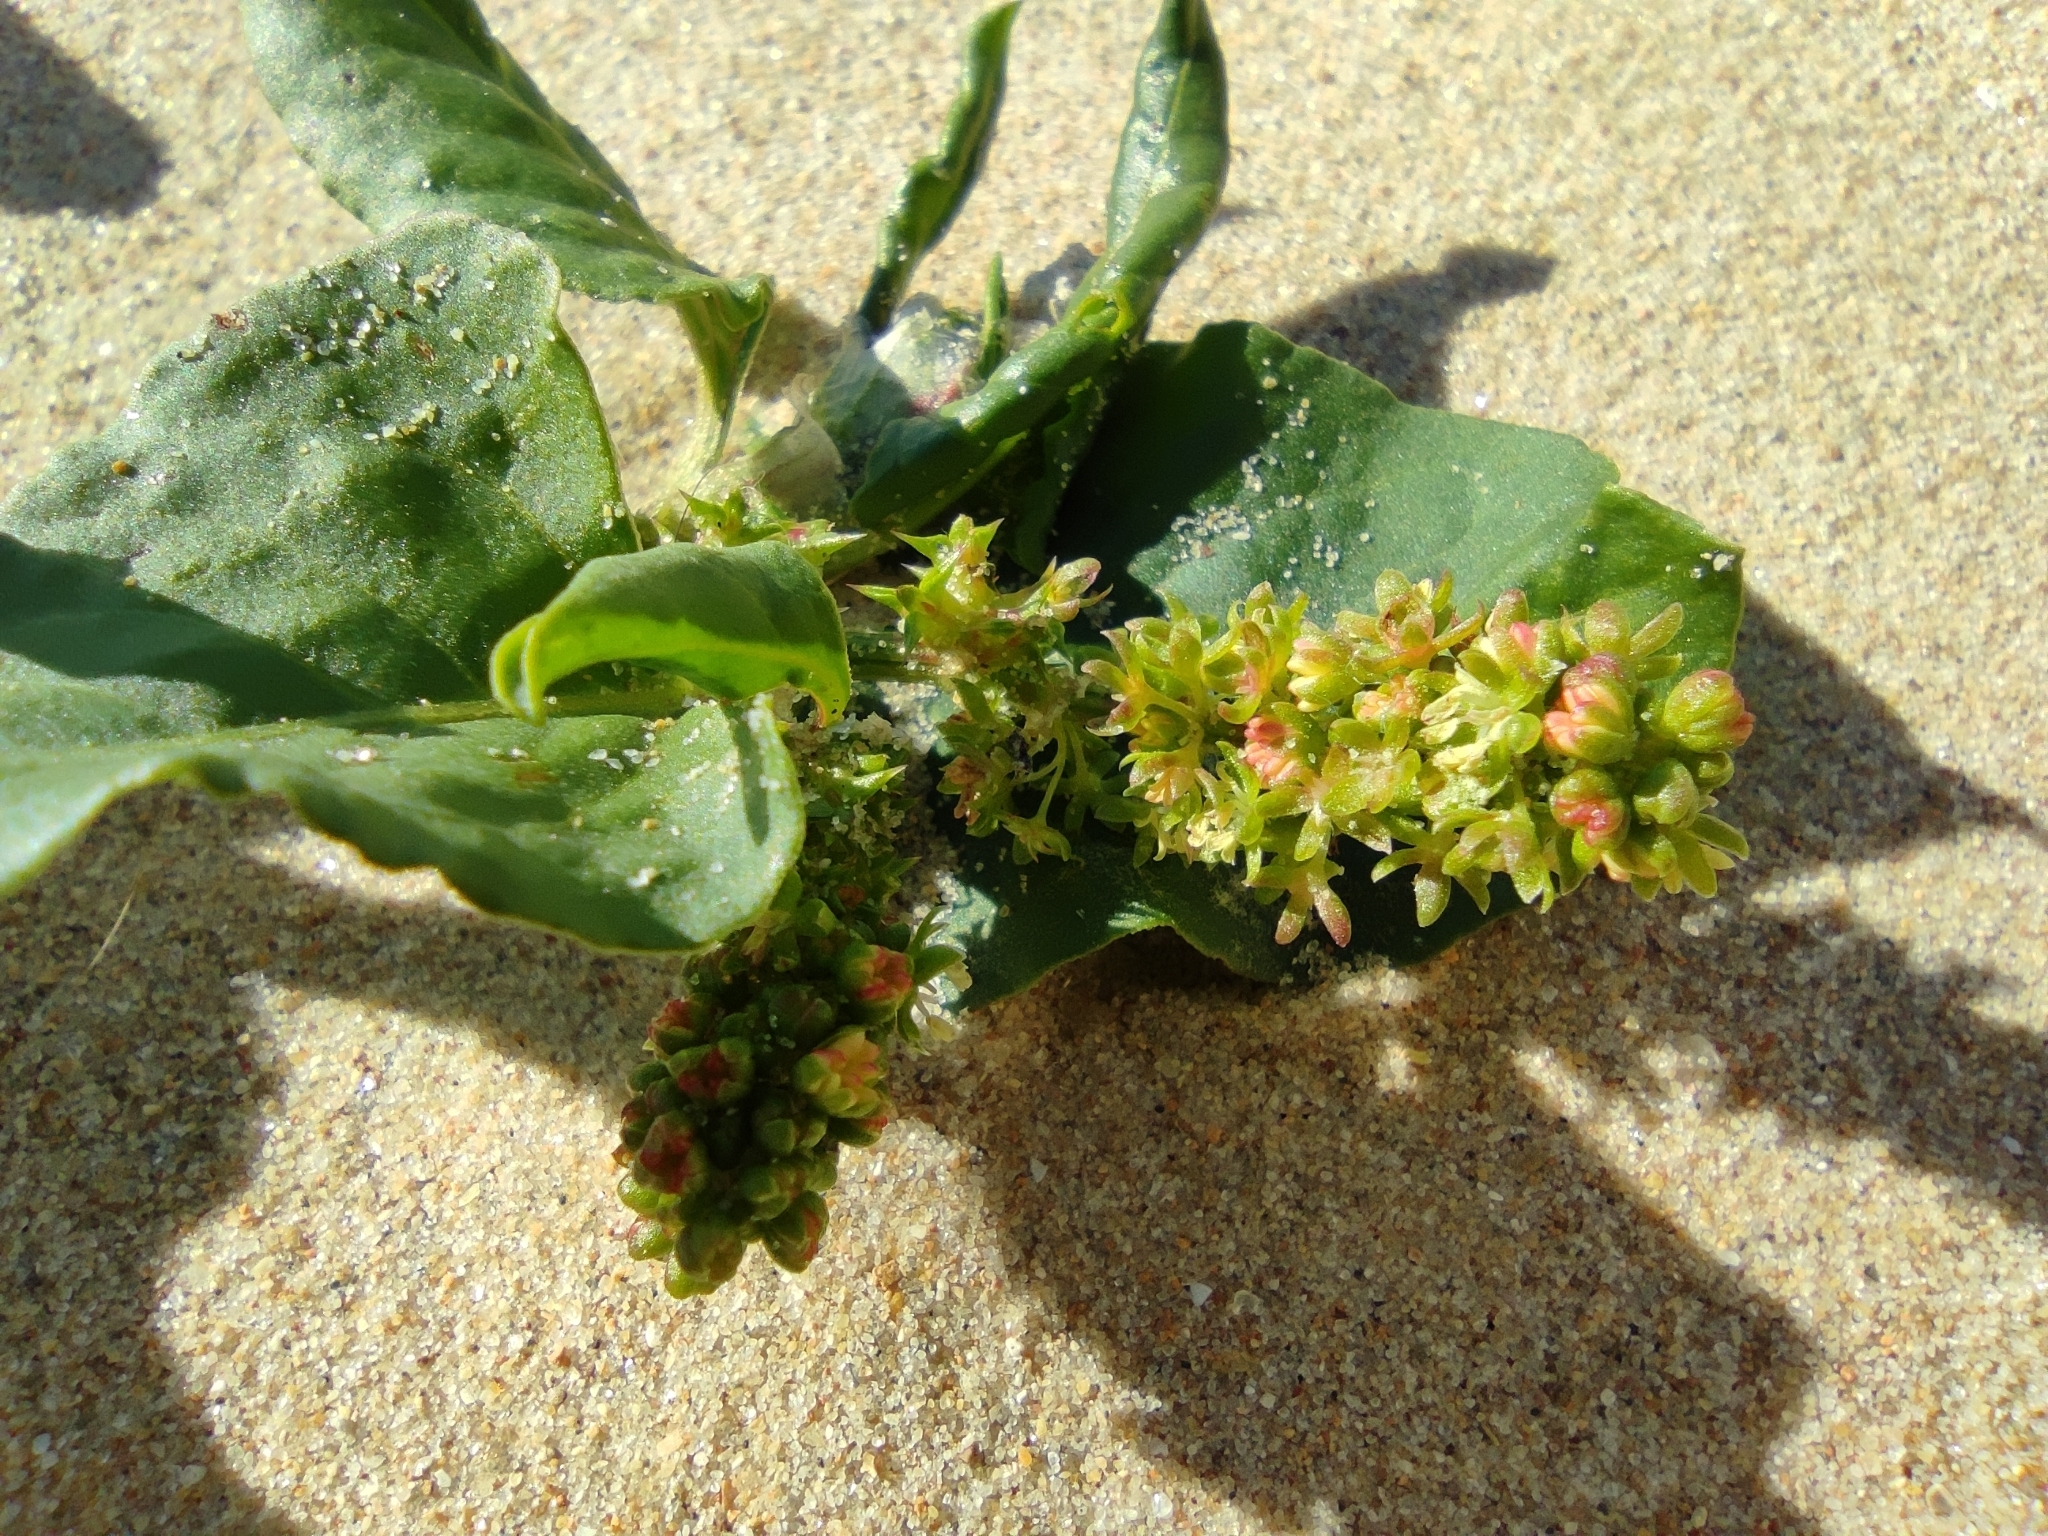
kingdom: Plantae
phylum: Tracheophyta
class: Magnoliopsida
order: Caryophyllales
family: Polygonaceae
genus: Rumex
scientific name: Rumex spinosus
